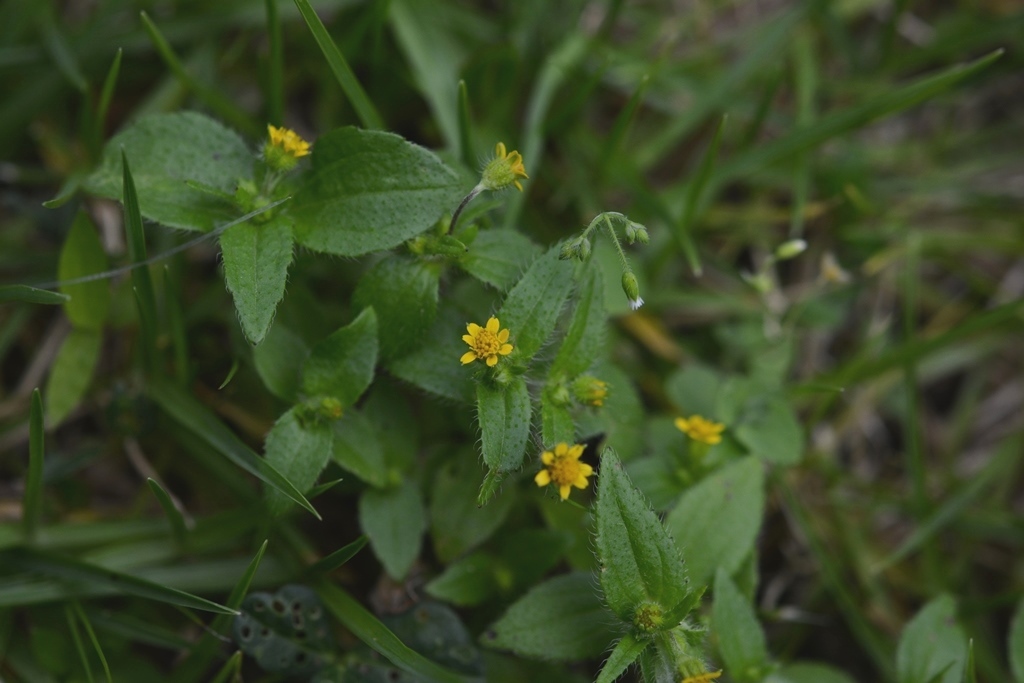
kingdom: Plantae
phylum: Tracheophyta
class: Magnoliopsida
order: Asterales
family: Asteraceae
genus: Jaegeria
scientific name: Jaegeria hirta
